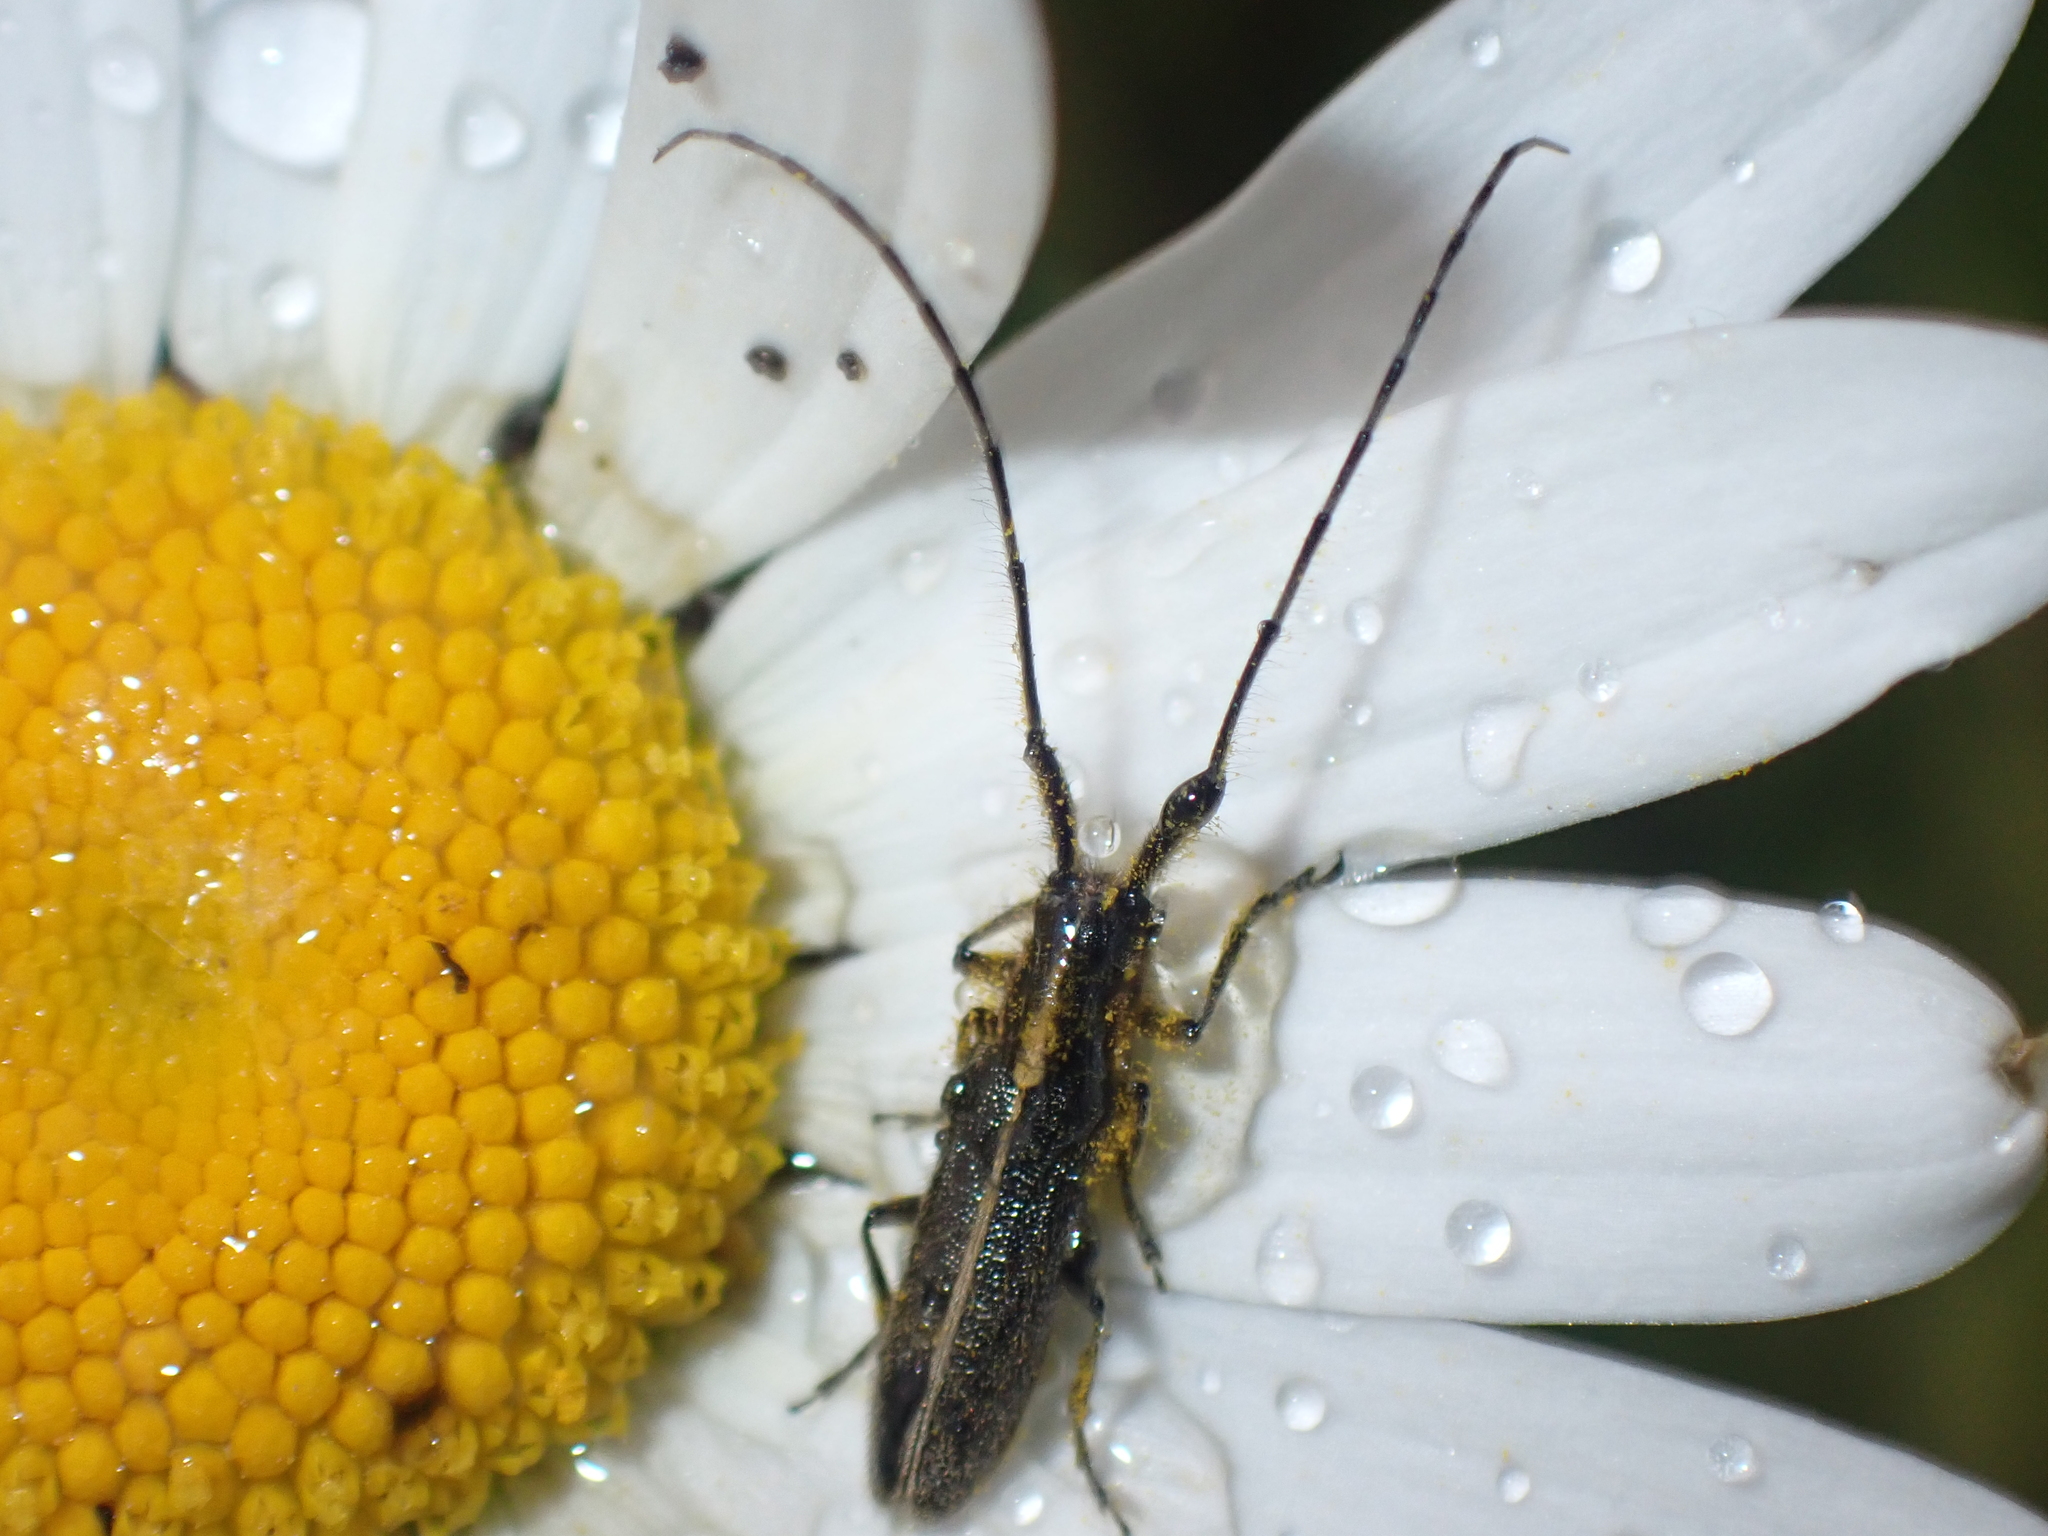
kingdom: Animalia
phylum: Arthropoda
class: Insecta
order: Coleoptera
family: Cerambycidae
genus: Agapanthia
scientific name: Agapanthia cardui
